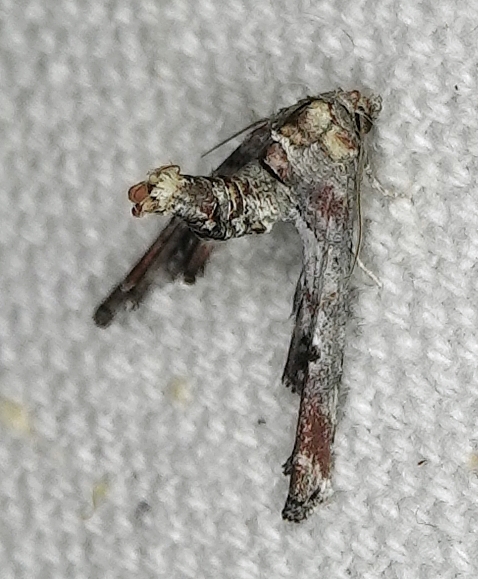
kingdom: Animalia
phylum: Arthropoda
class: Insecta
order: Lepidoptera
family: Euteliidae
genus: Marathyssa
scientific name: Marathyssa inficita
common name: Dark marathyssa moth
